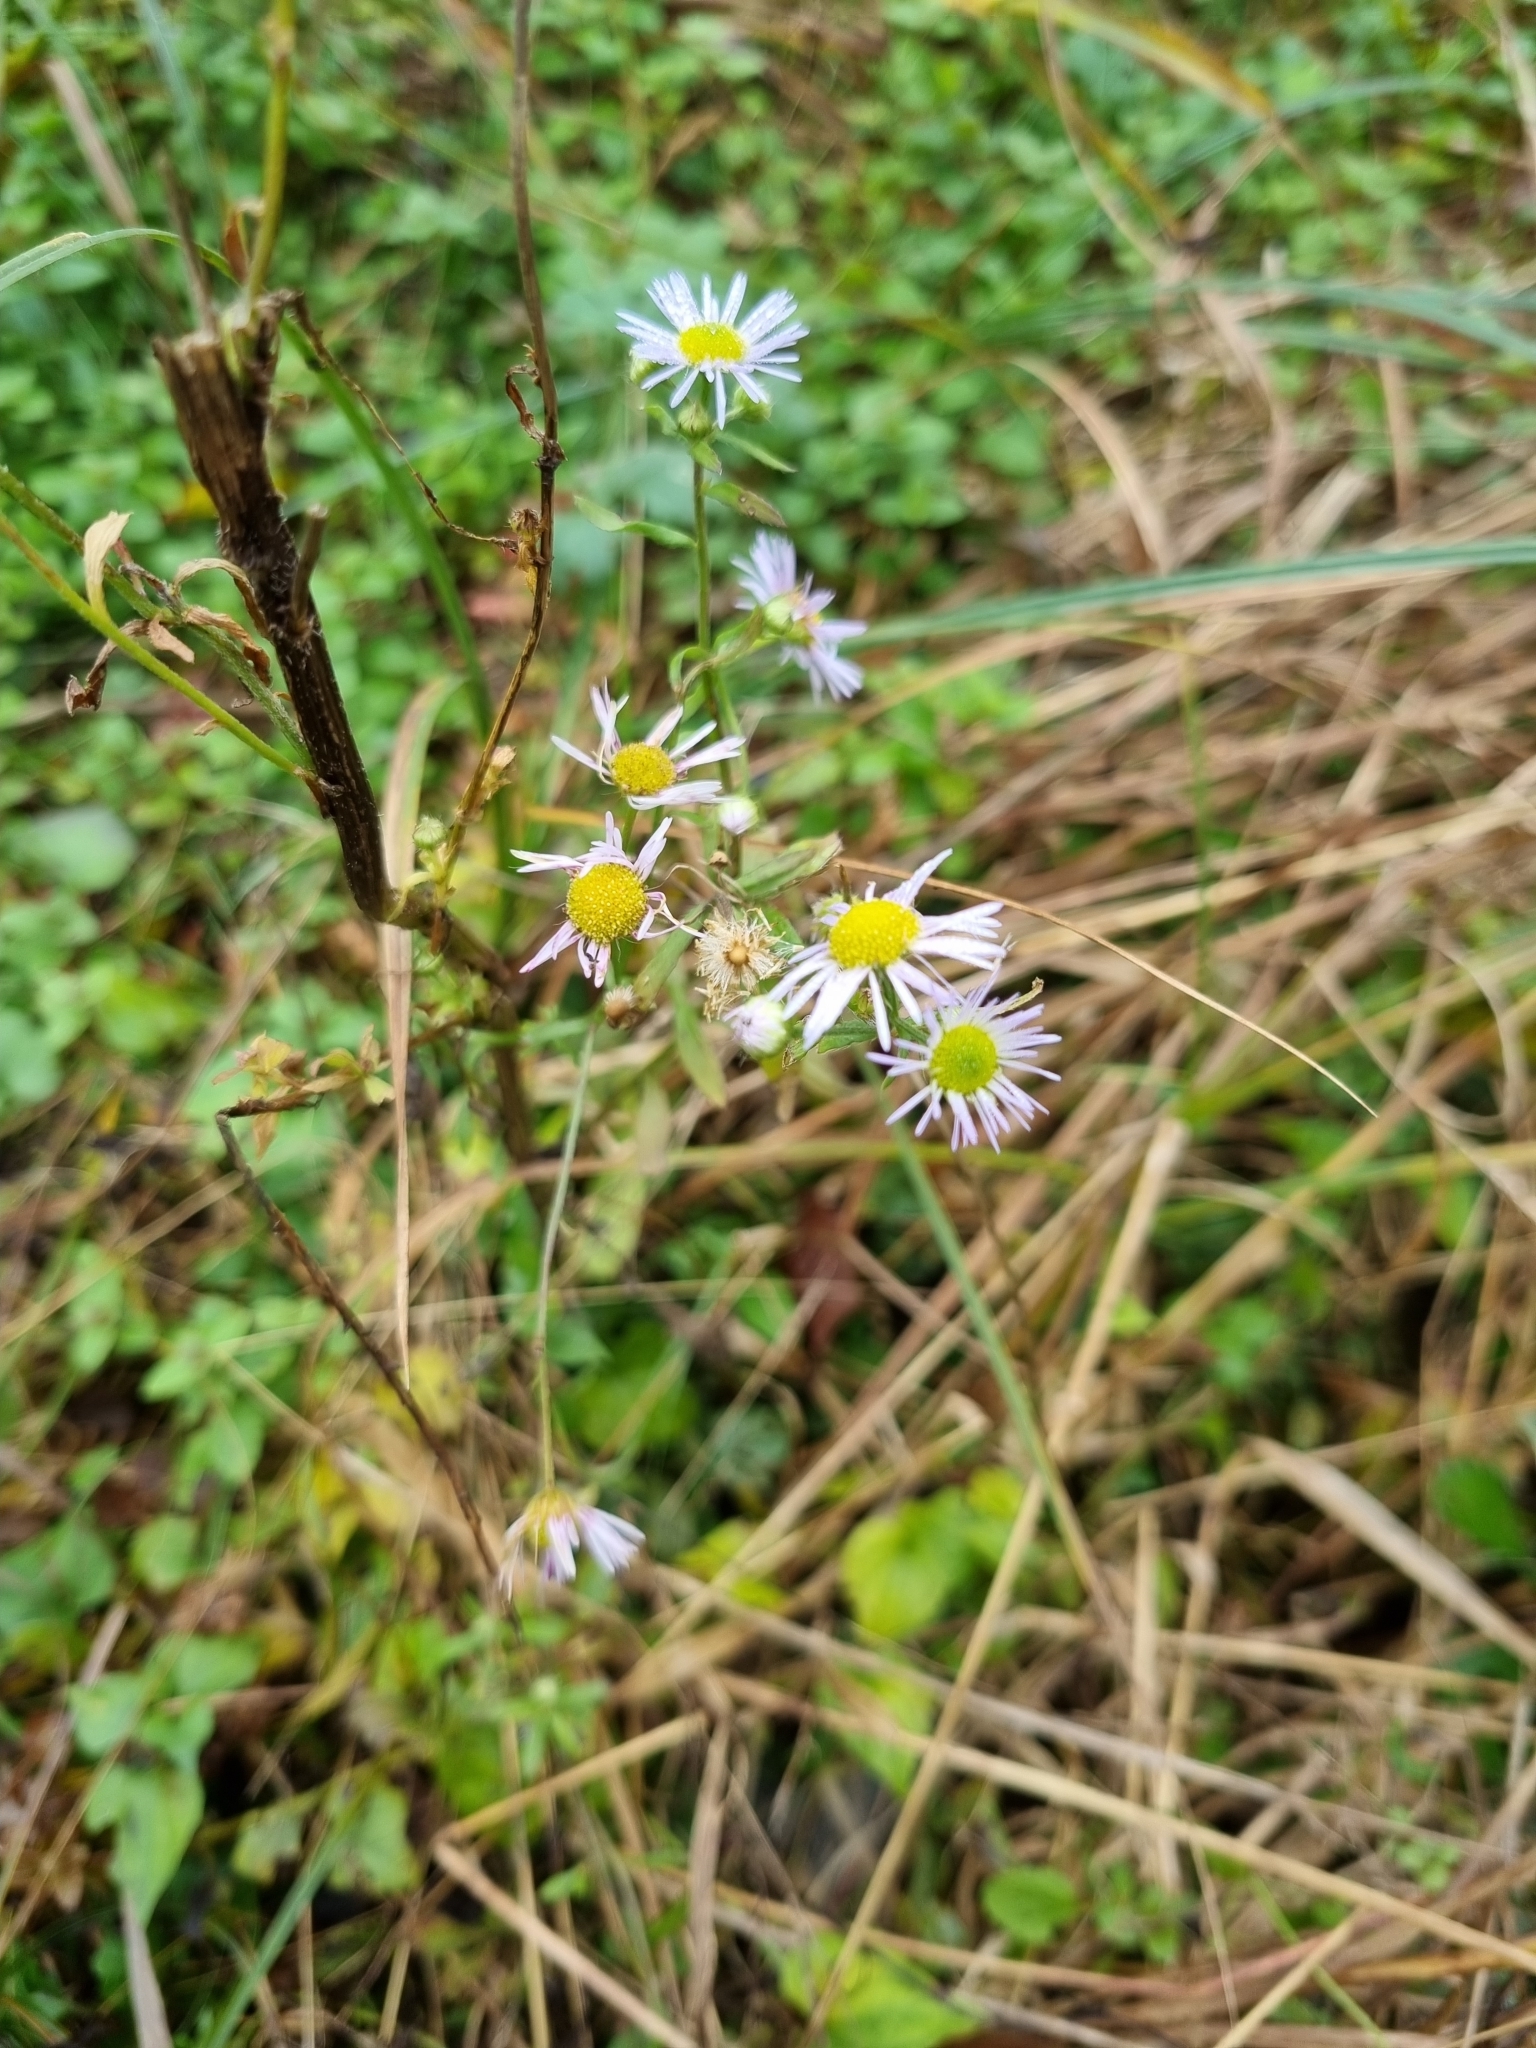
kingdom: Plantae
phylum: Tracheophyta
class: Magnoliopsida
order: Asterales
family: Asteraceae
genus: Erigeron
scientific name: Erigeron annuus
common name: Tall fleabane
